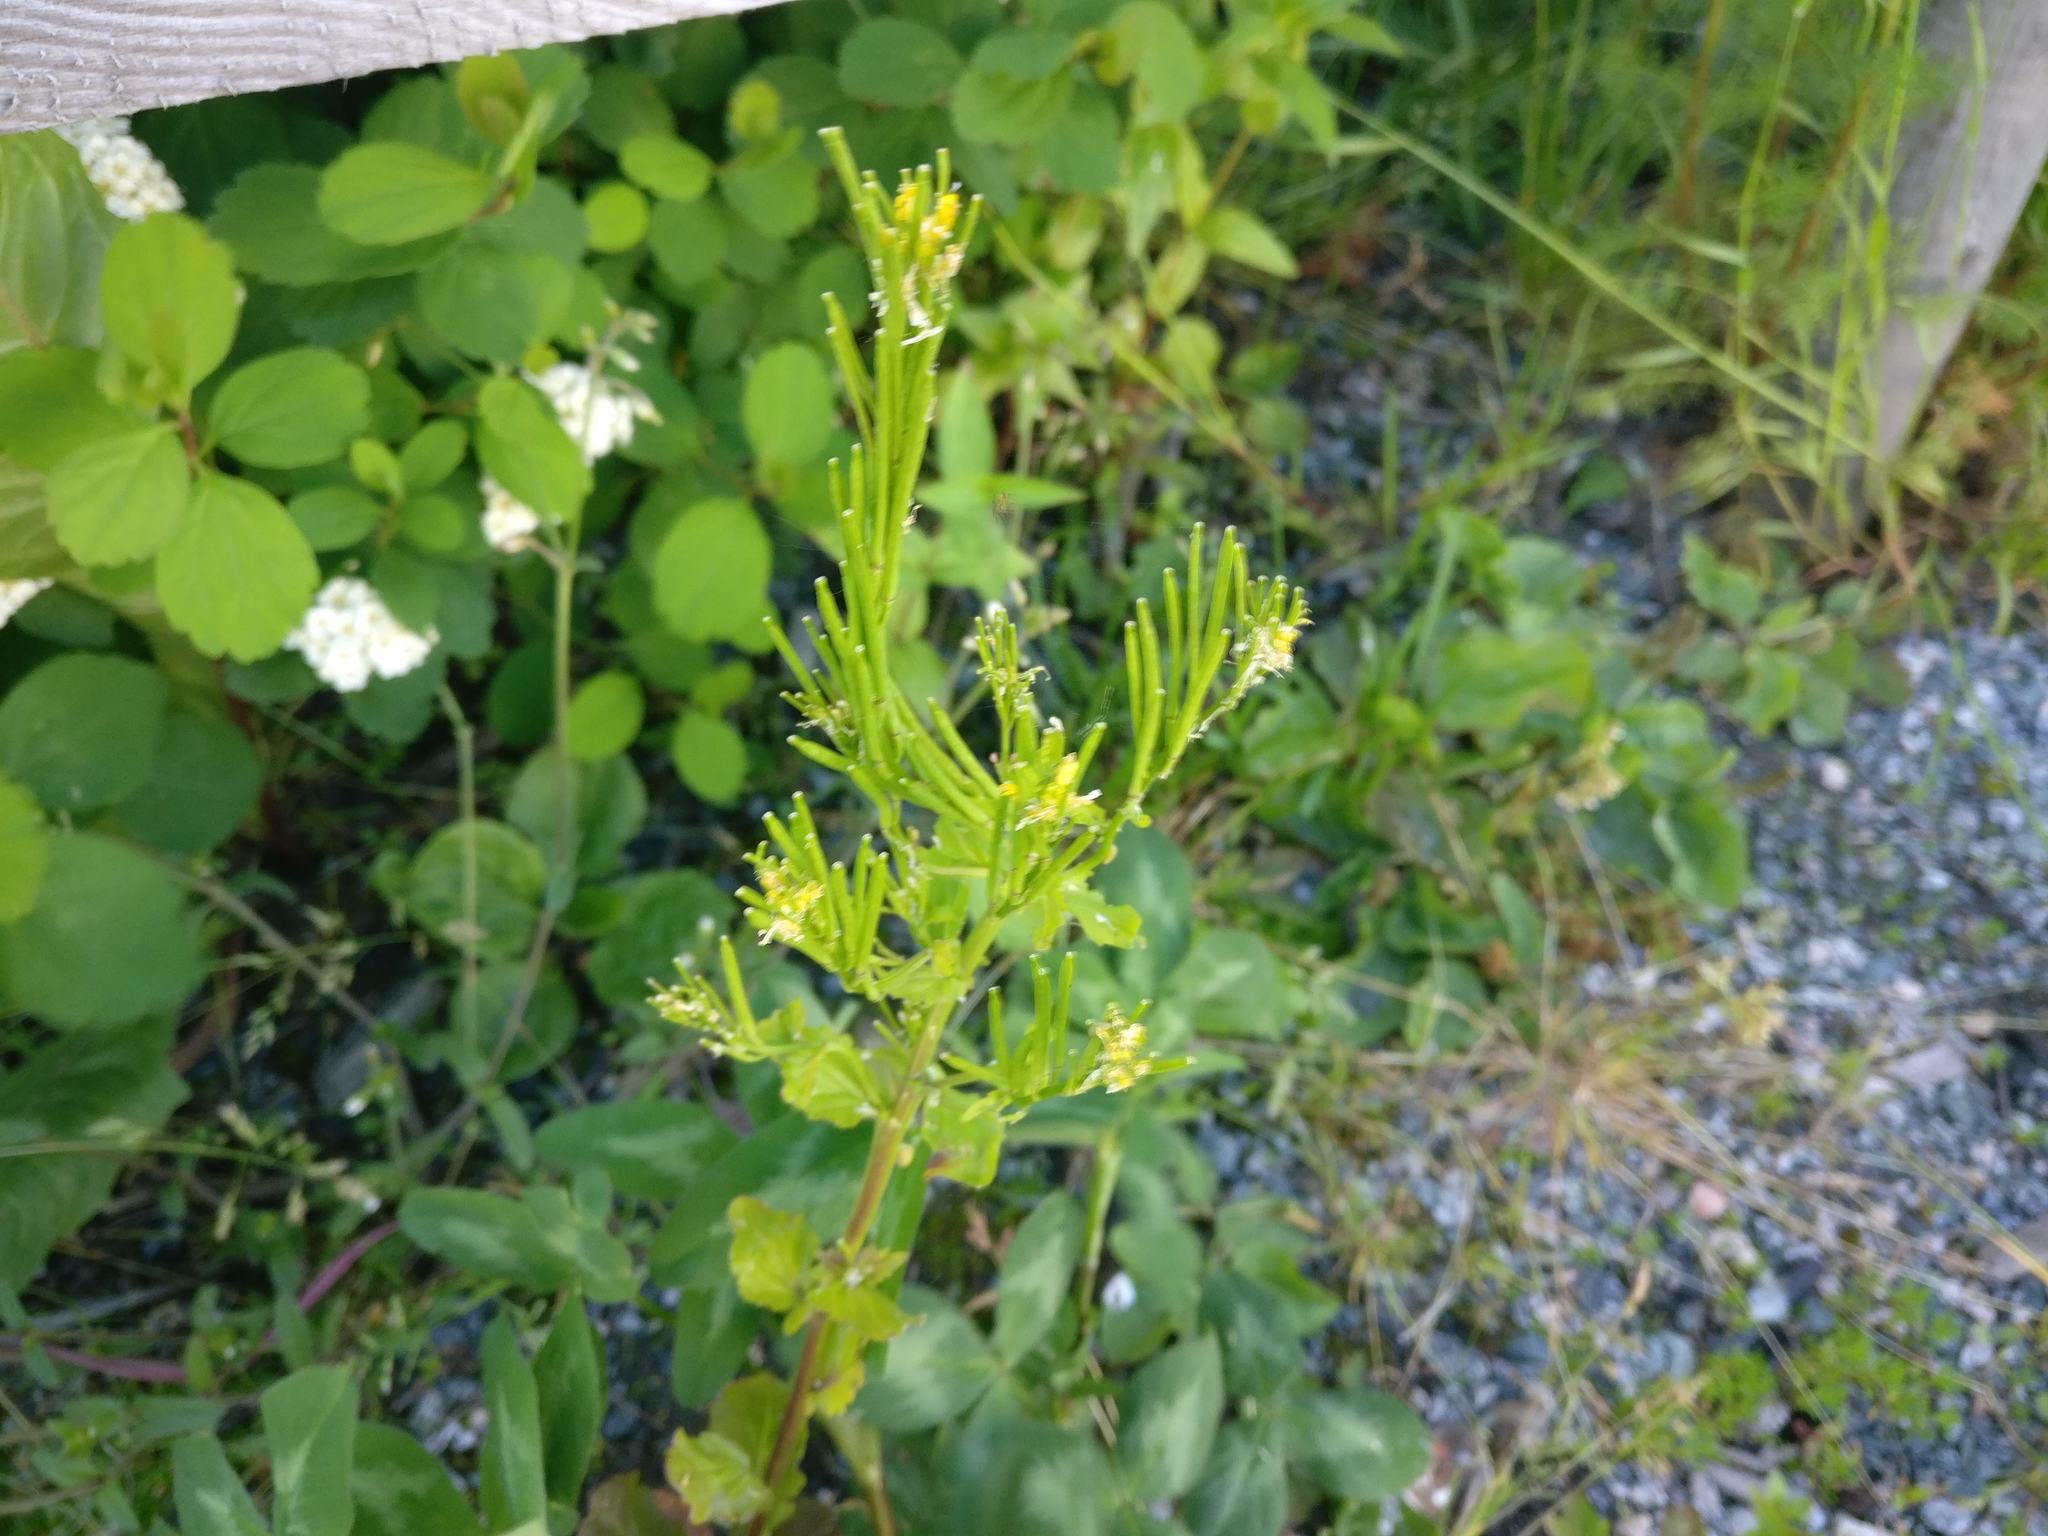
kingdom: Plantae
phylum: Tracheophyta
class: Magnoliopsida
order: Brassicales
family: Brassicaceae
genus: Barbarea
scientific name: Barbarea stricta
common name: Small-flowered winter-cress
